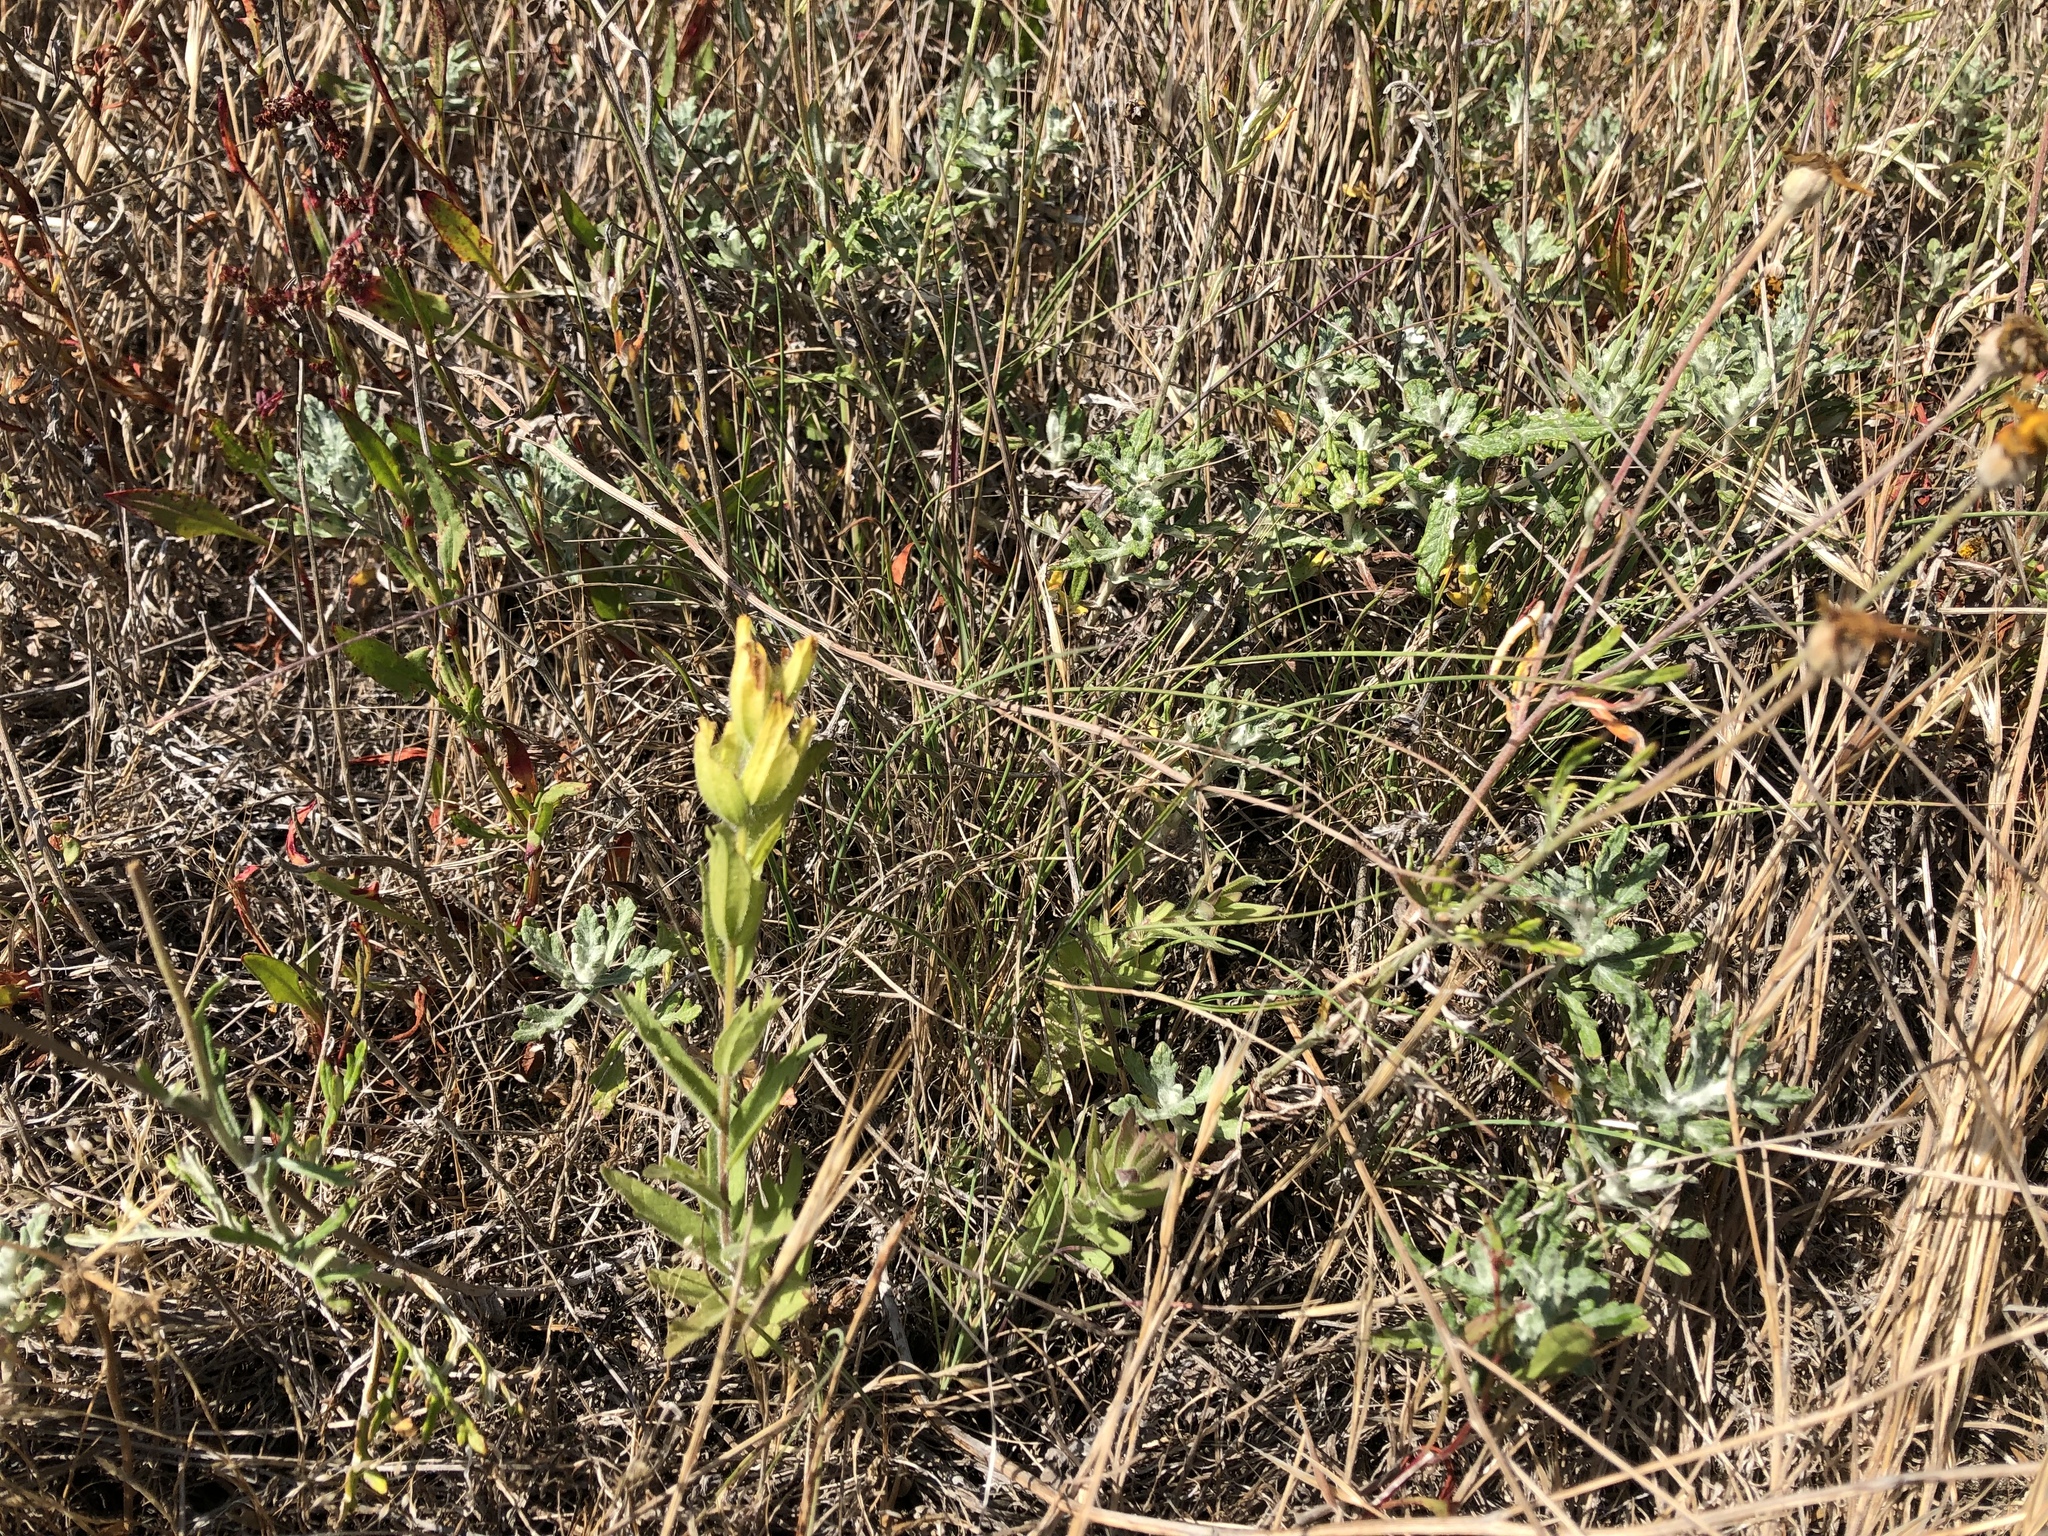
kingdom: Plantae
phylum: Tracheophyta
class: Magnoliopsida
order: Lamiales
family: Orobanchaceae
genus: Castilleja
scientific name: Castilleja levisecta
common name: Golden paintbrush
